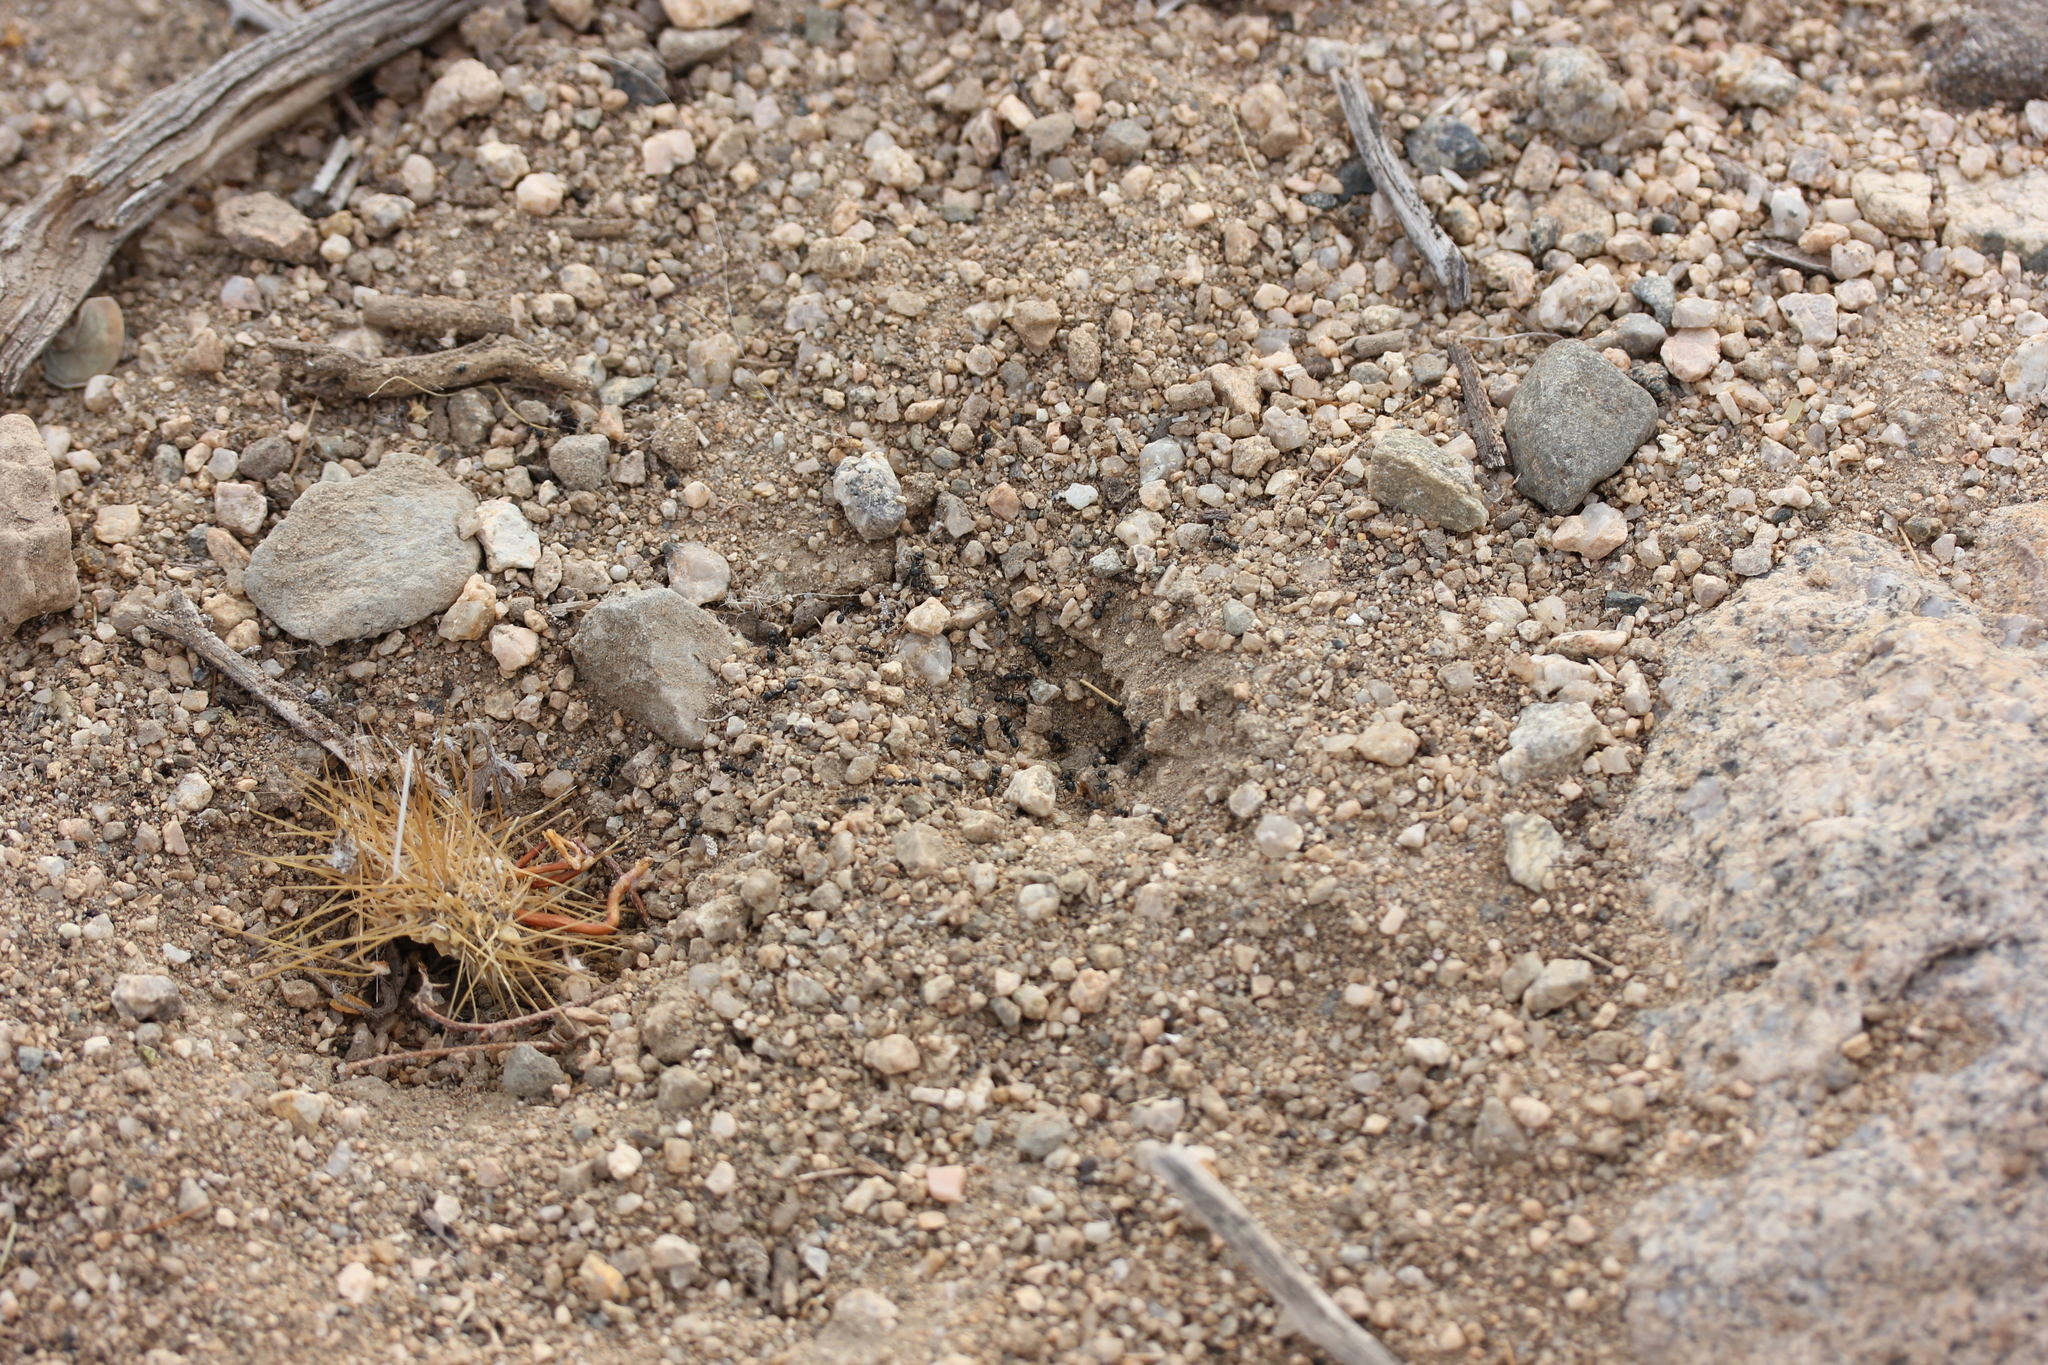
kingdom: Animalia
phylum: Arthropoda
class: Insecta
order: Hymenoptera
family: Formicidae
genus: Messor
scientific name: Messor pergandei
